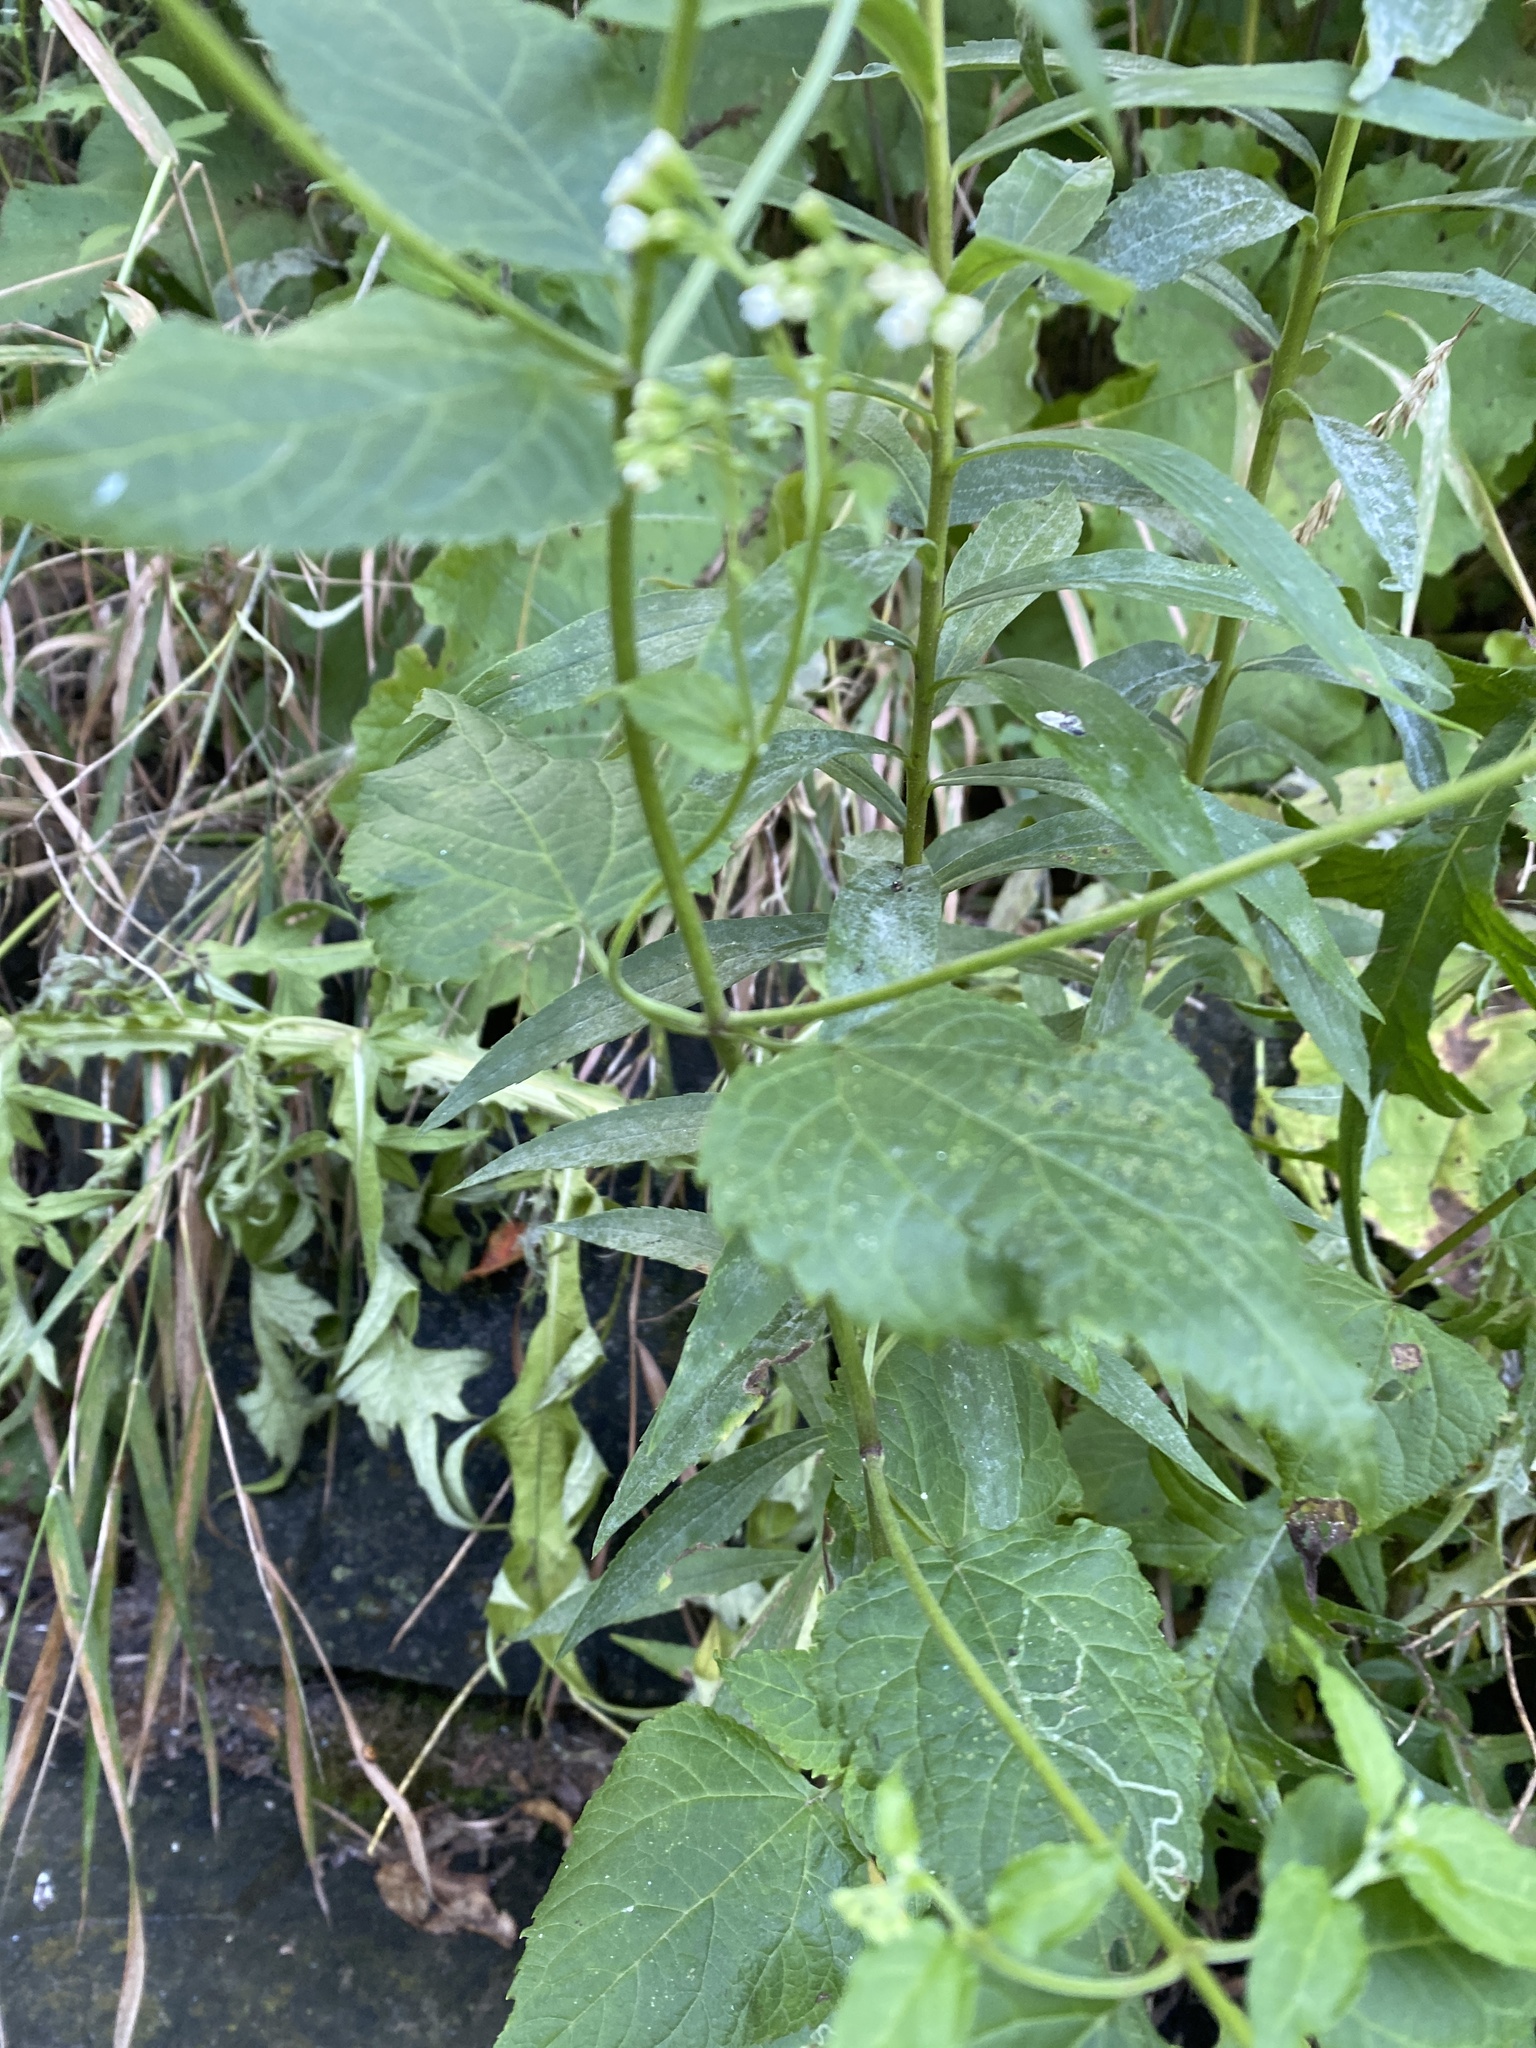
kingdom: Plantae
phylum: Tracheophyta
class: Magnoliopsida
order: Asterales
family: Asteraceae
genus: Ageratina
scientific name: Ageratina altissima
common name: White snakeroot
